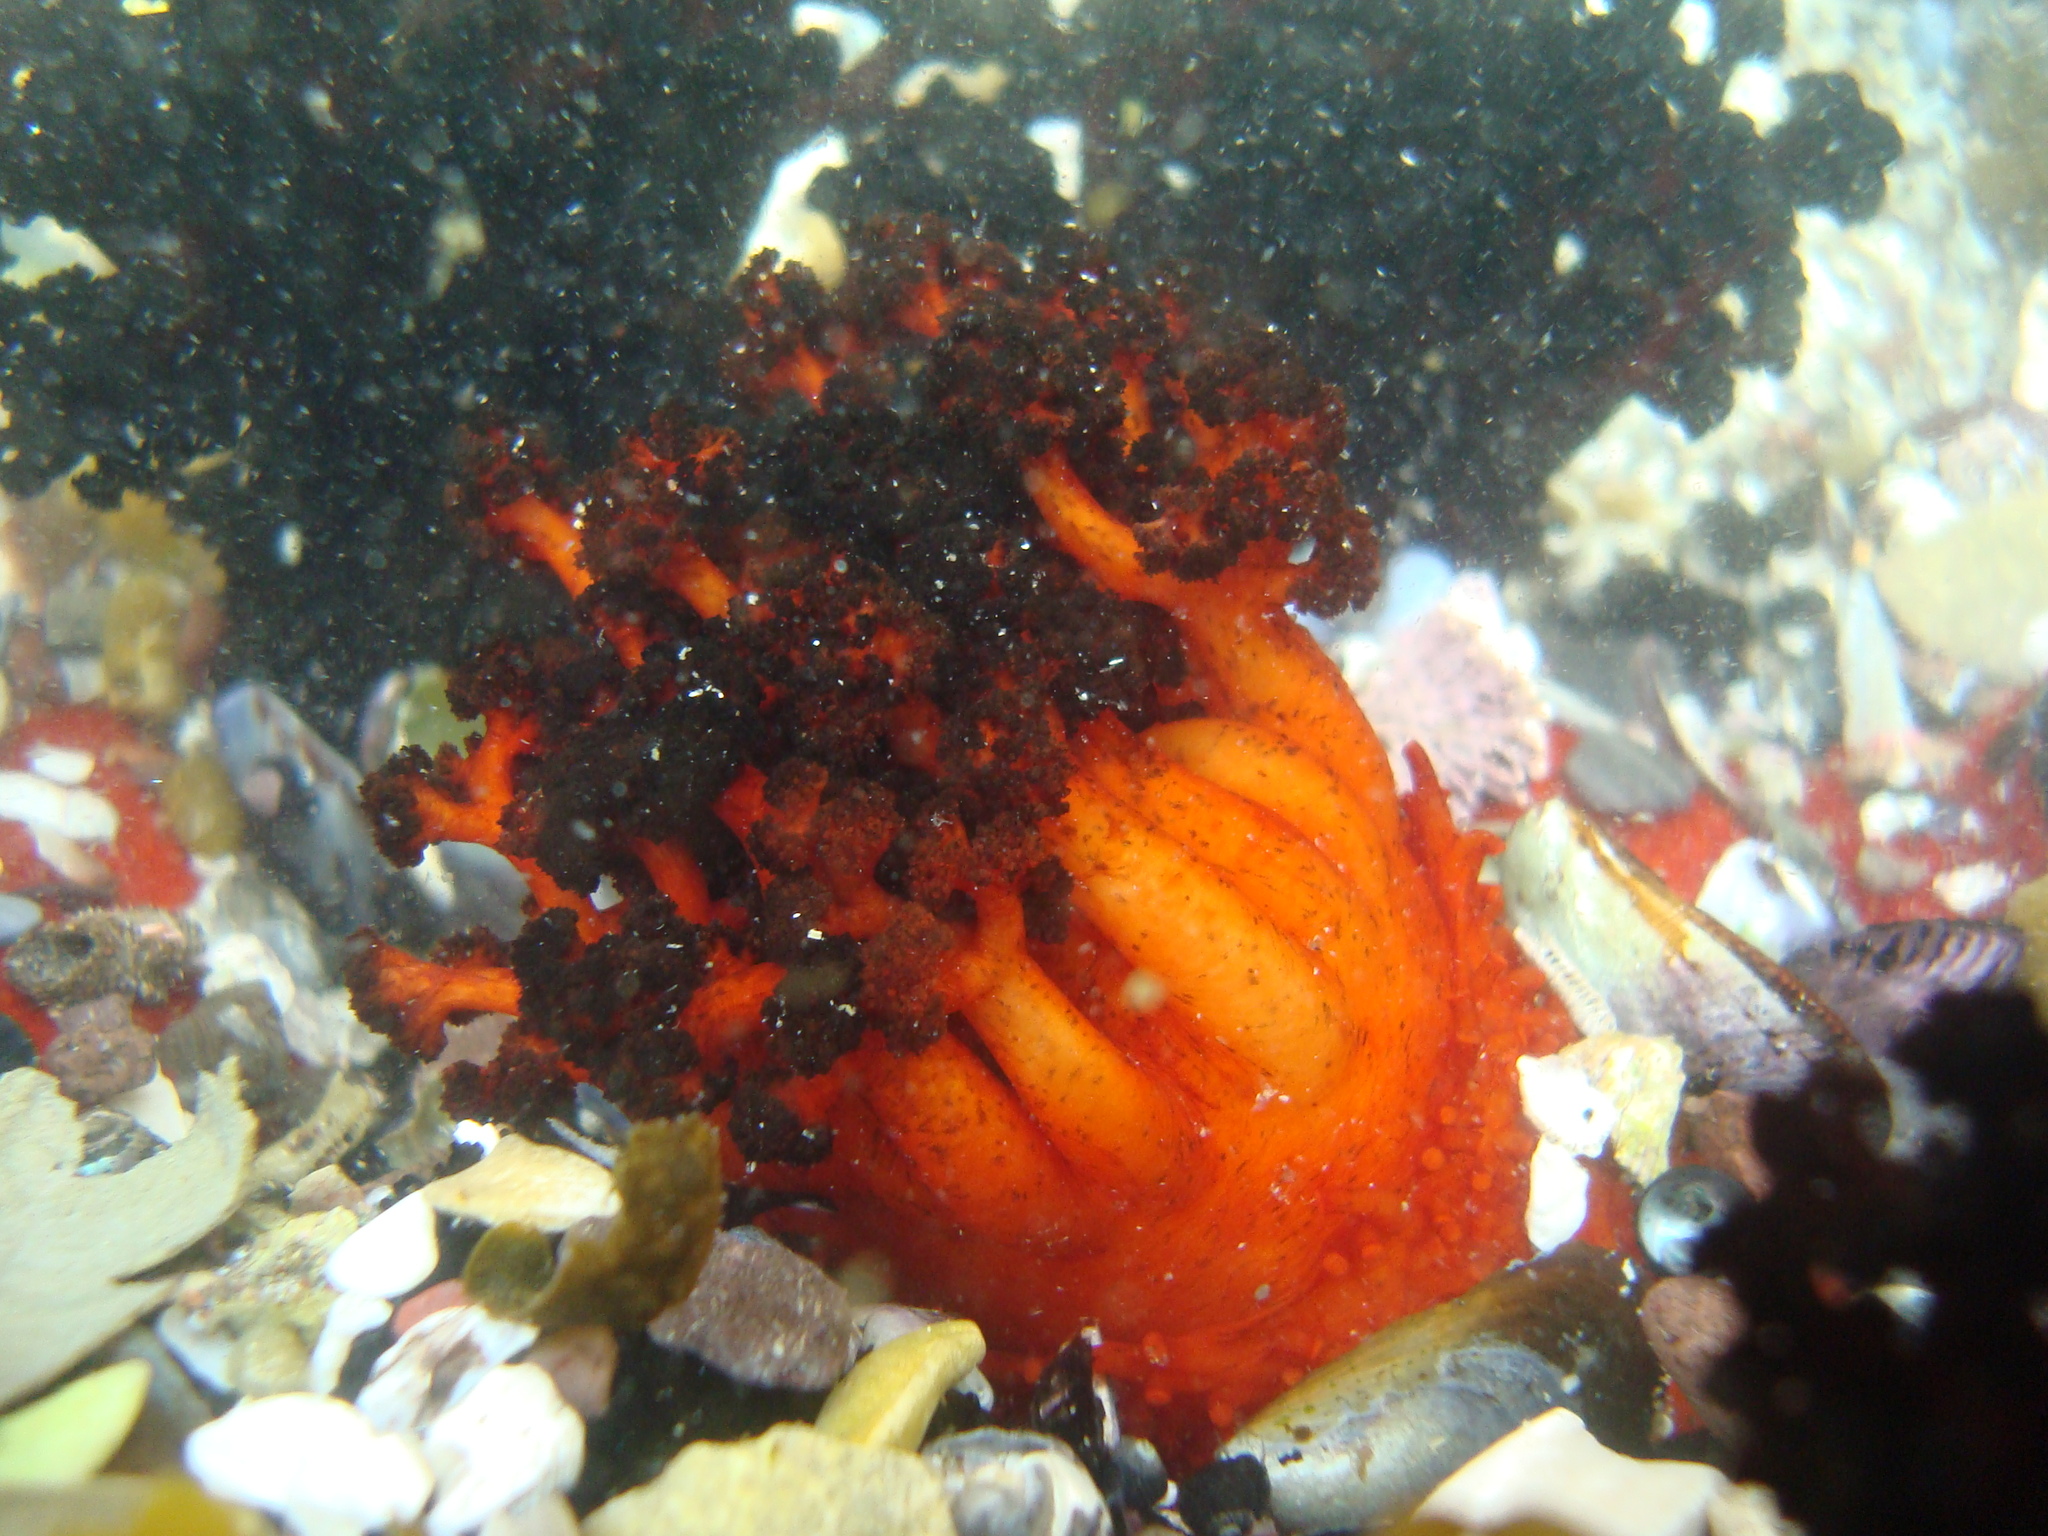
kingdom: Animalia
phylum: Echinodermata
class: Holothuroidea
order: Dendrochirotida
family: Cucumariidae
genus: Pattalus
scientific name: Pattalus mollis
